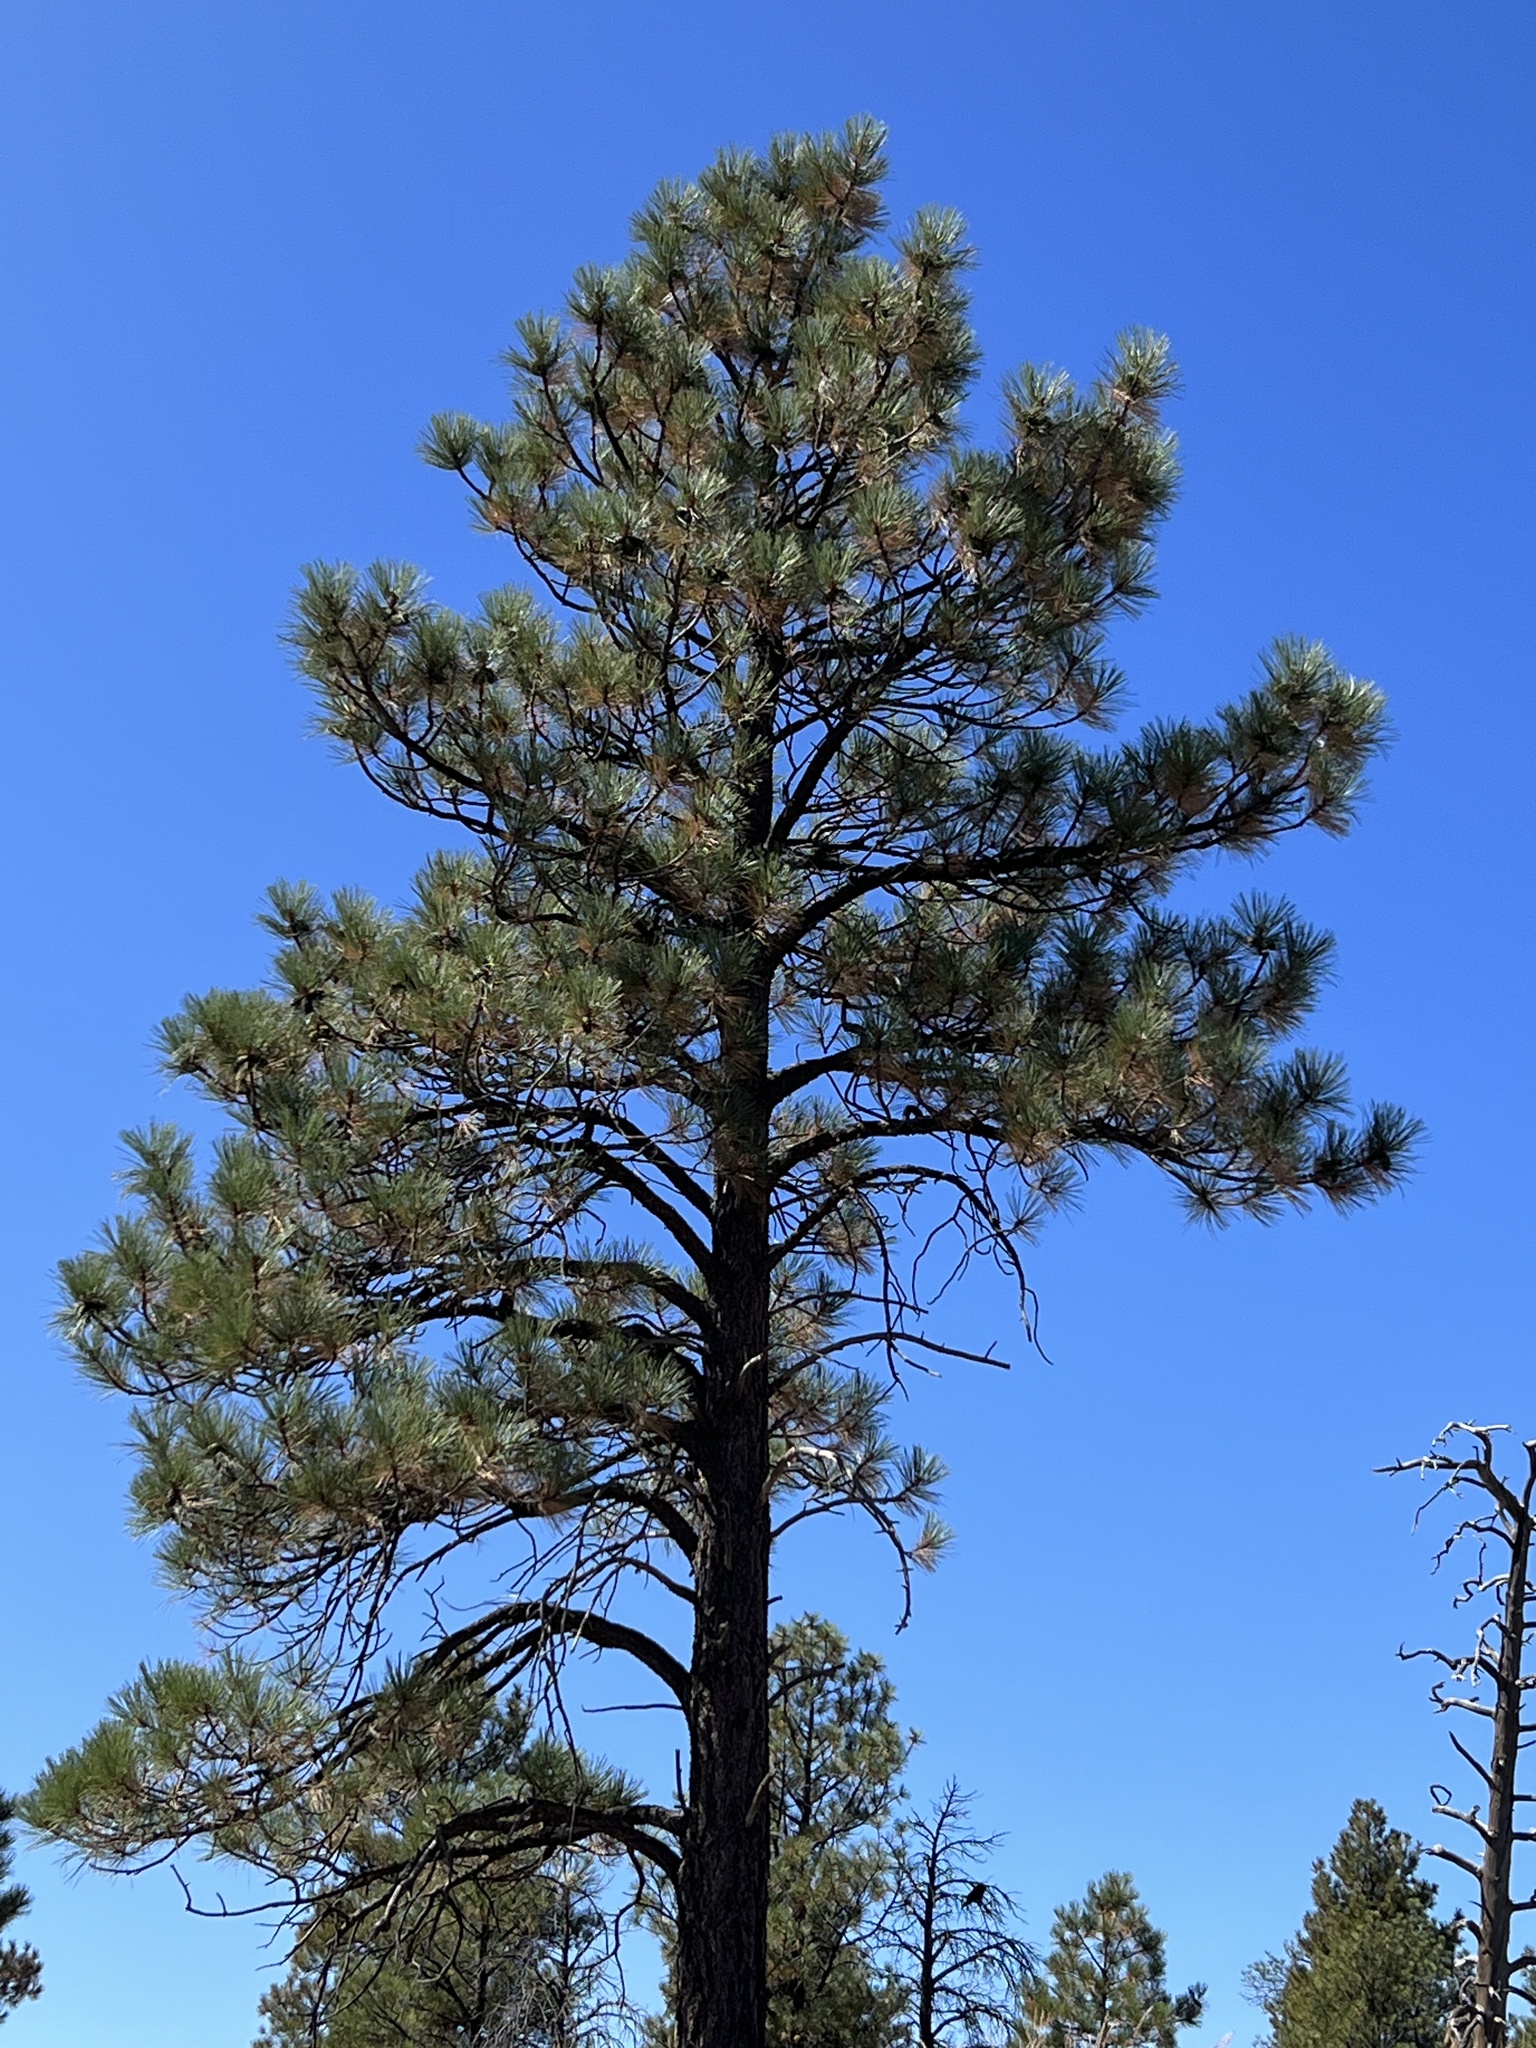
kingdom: Plantae
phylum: Tracheophyta
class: Pinopsida
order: Pinales
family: Pinaceae
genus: Pinus
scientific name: Pinus ponderosa
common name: Western yellow-pine
